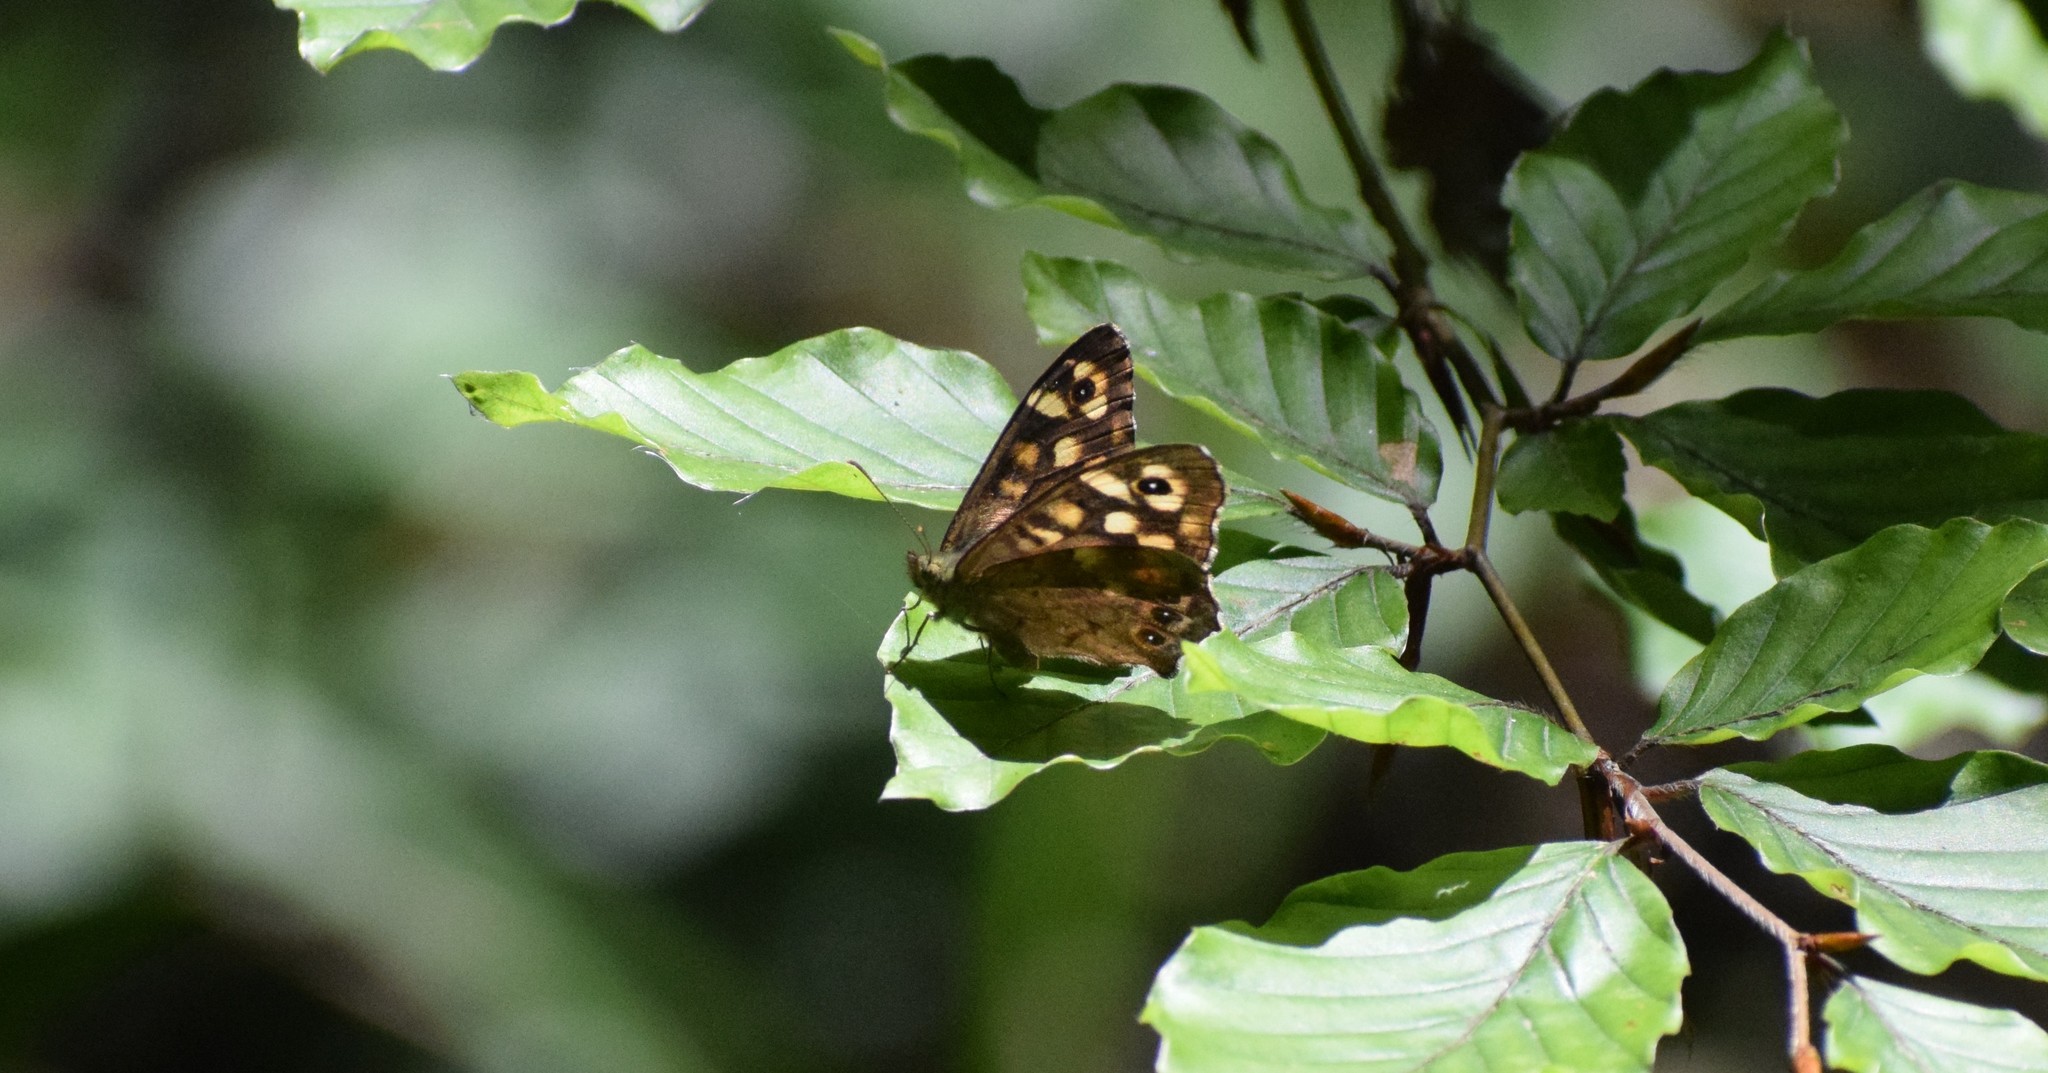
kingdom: Animalia
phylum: Arthropoda
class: Insecta
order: Lepidoptera
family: Nymphalidae
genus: Pararge
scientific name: Pararge aegeria
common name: Speckled wood
